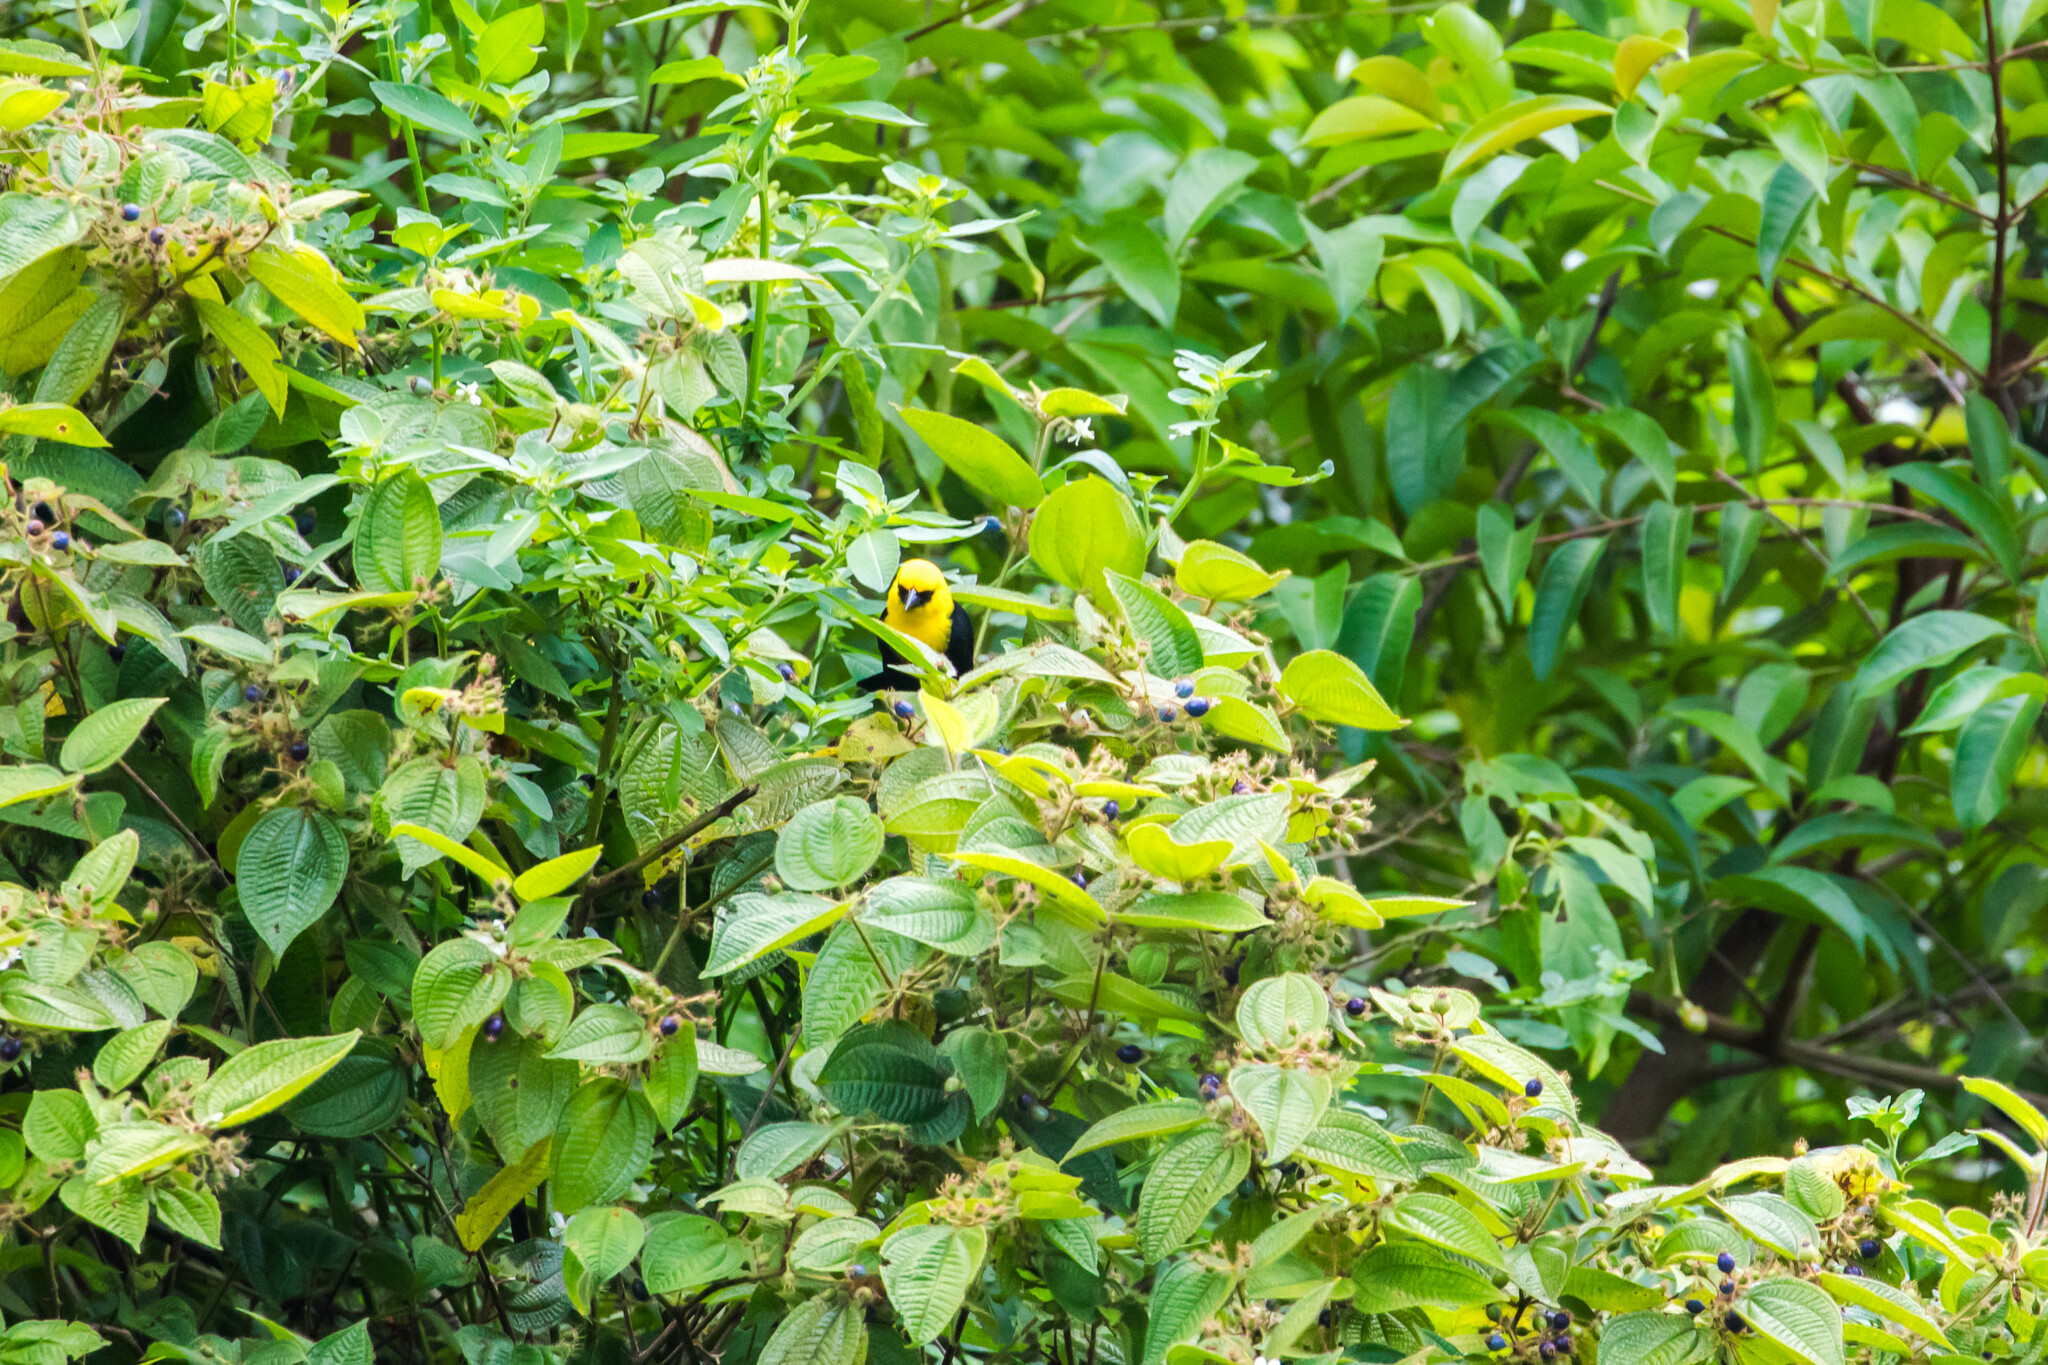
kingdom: Animalia
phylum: Chordata
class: Aves
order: Passeriformes
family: Icteridae
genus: Chrysomus
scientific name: Chrysomus icterocephalus
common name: Yellow-hooded blackbird
